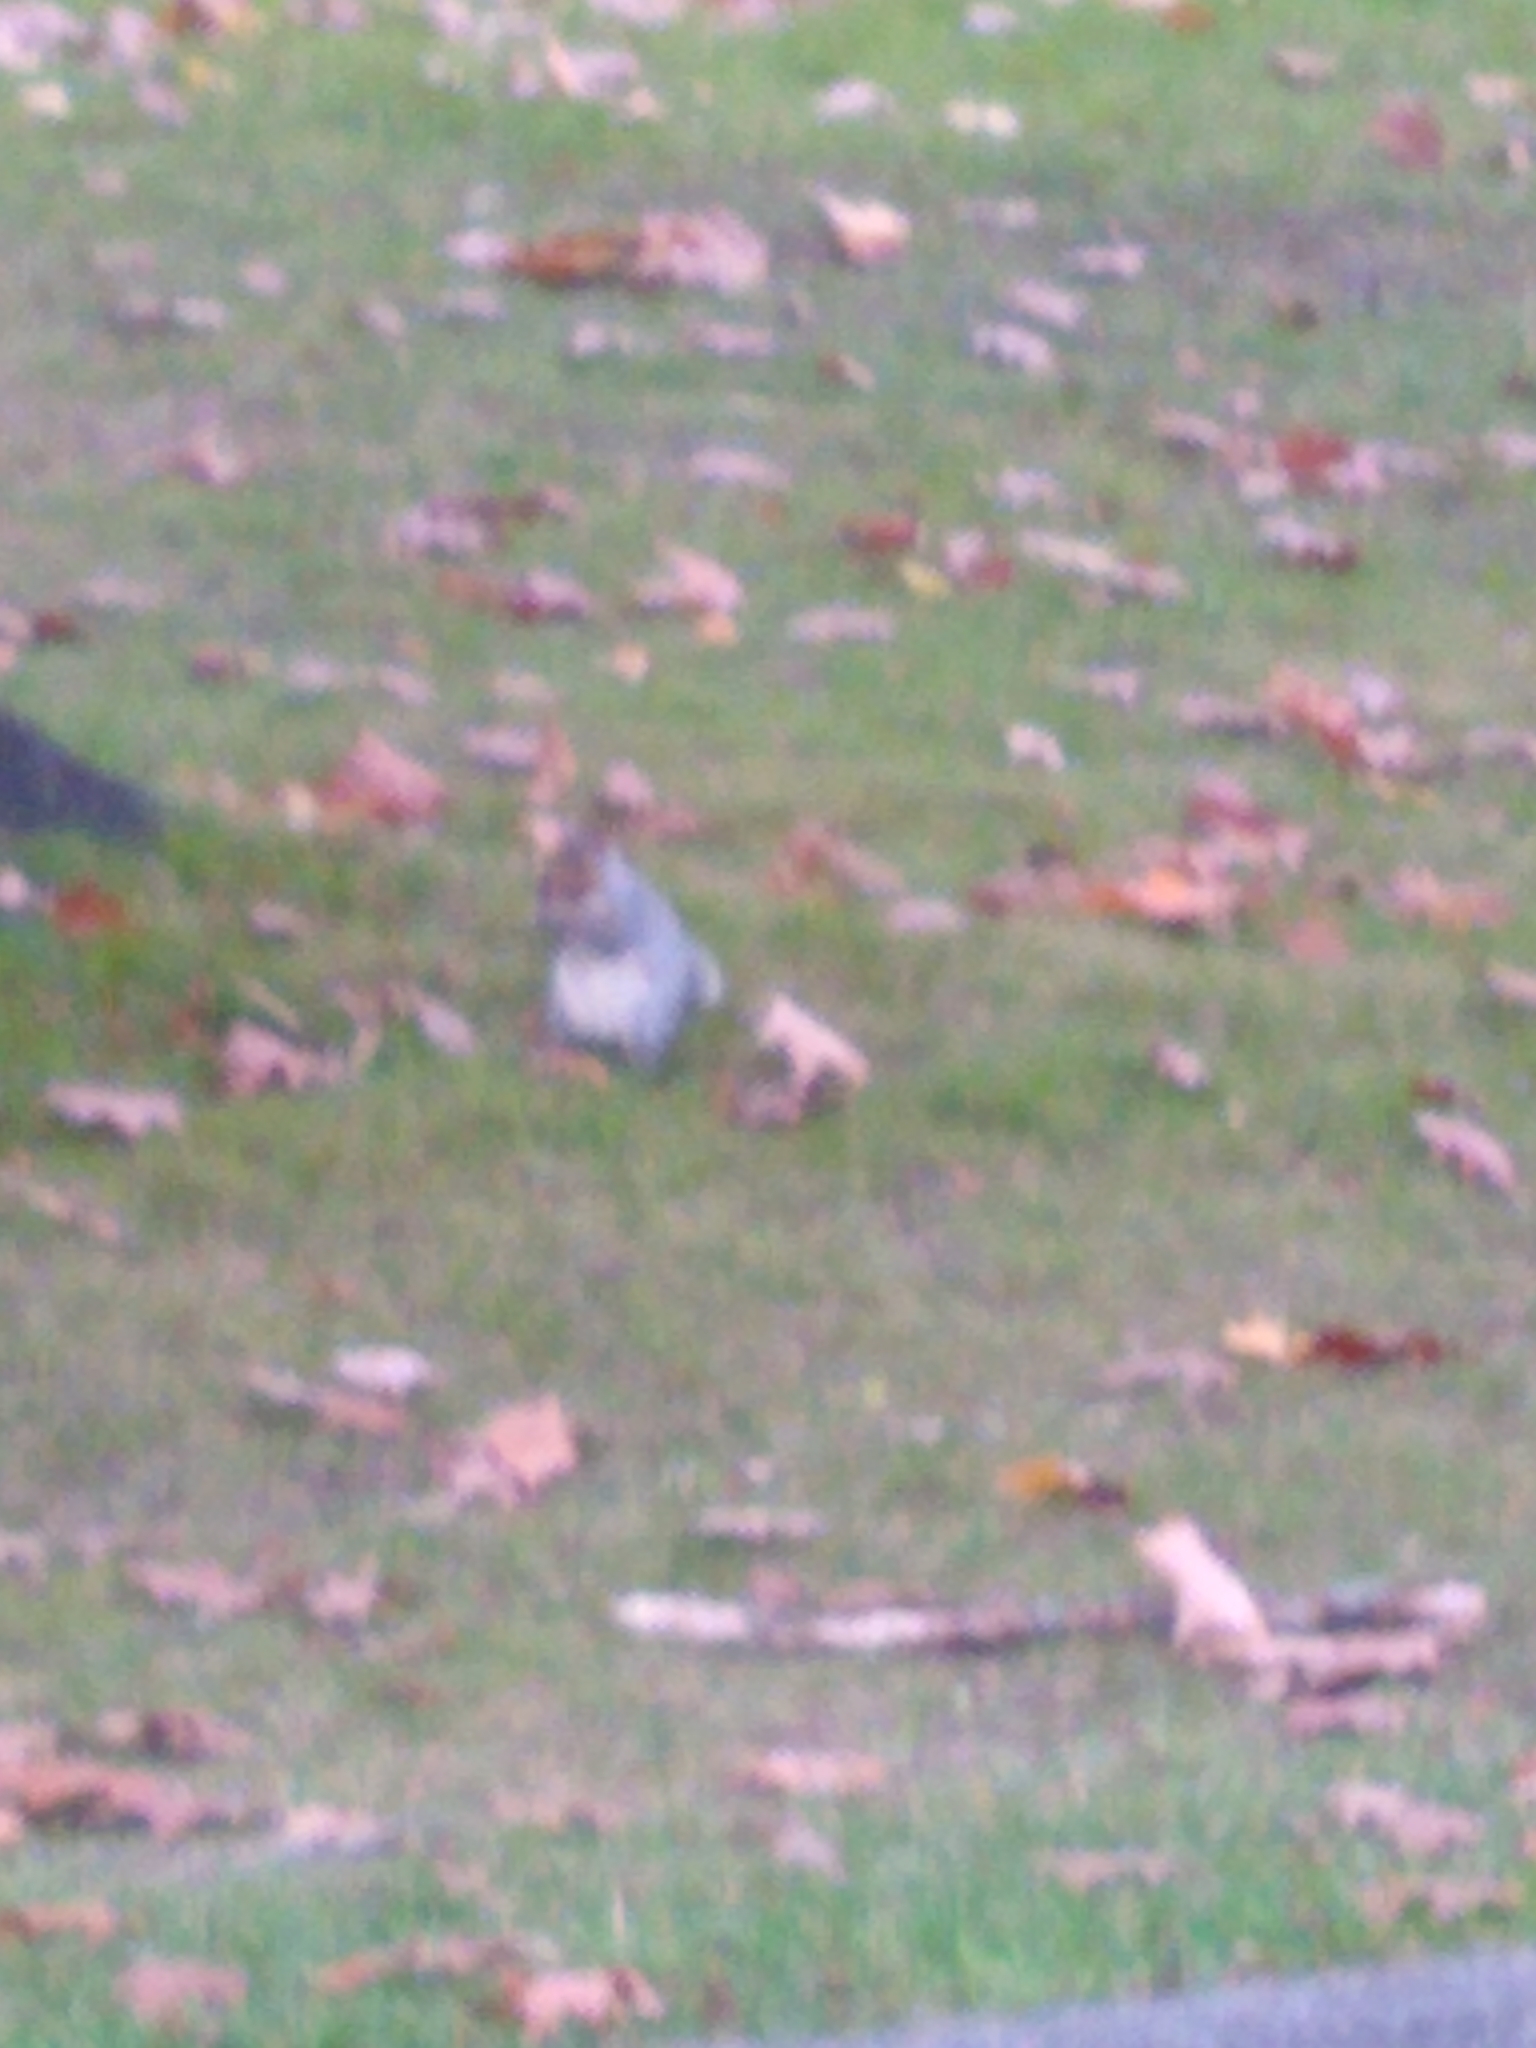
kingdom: Animalia
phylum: Chordata
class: Mammalia
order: Rodentia
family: Sciuridae
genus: Sciurus
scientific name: Sciurus carolinensis
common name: Eastern gray squirrel
